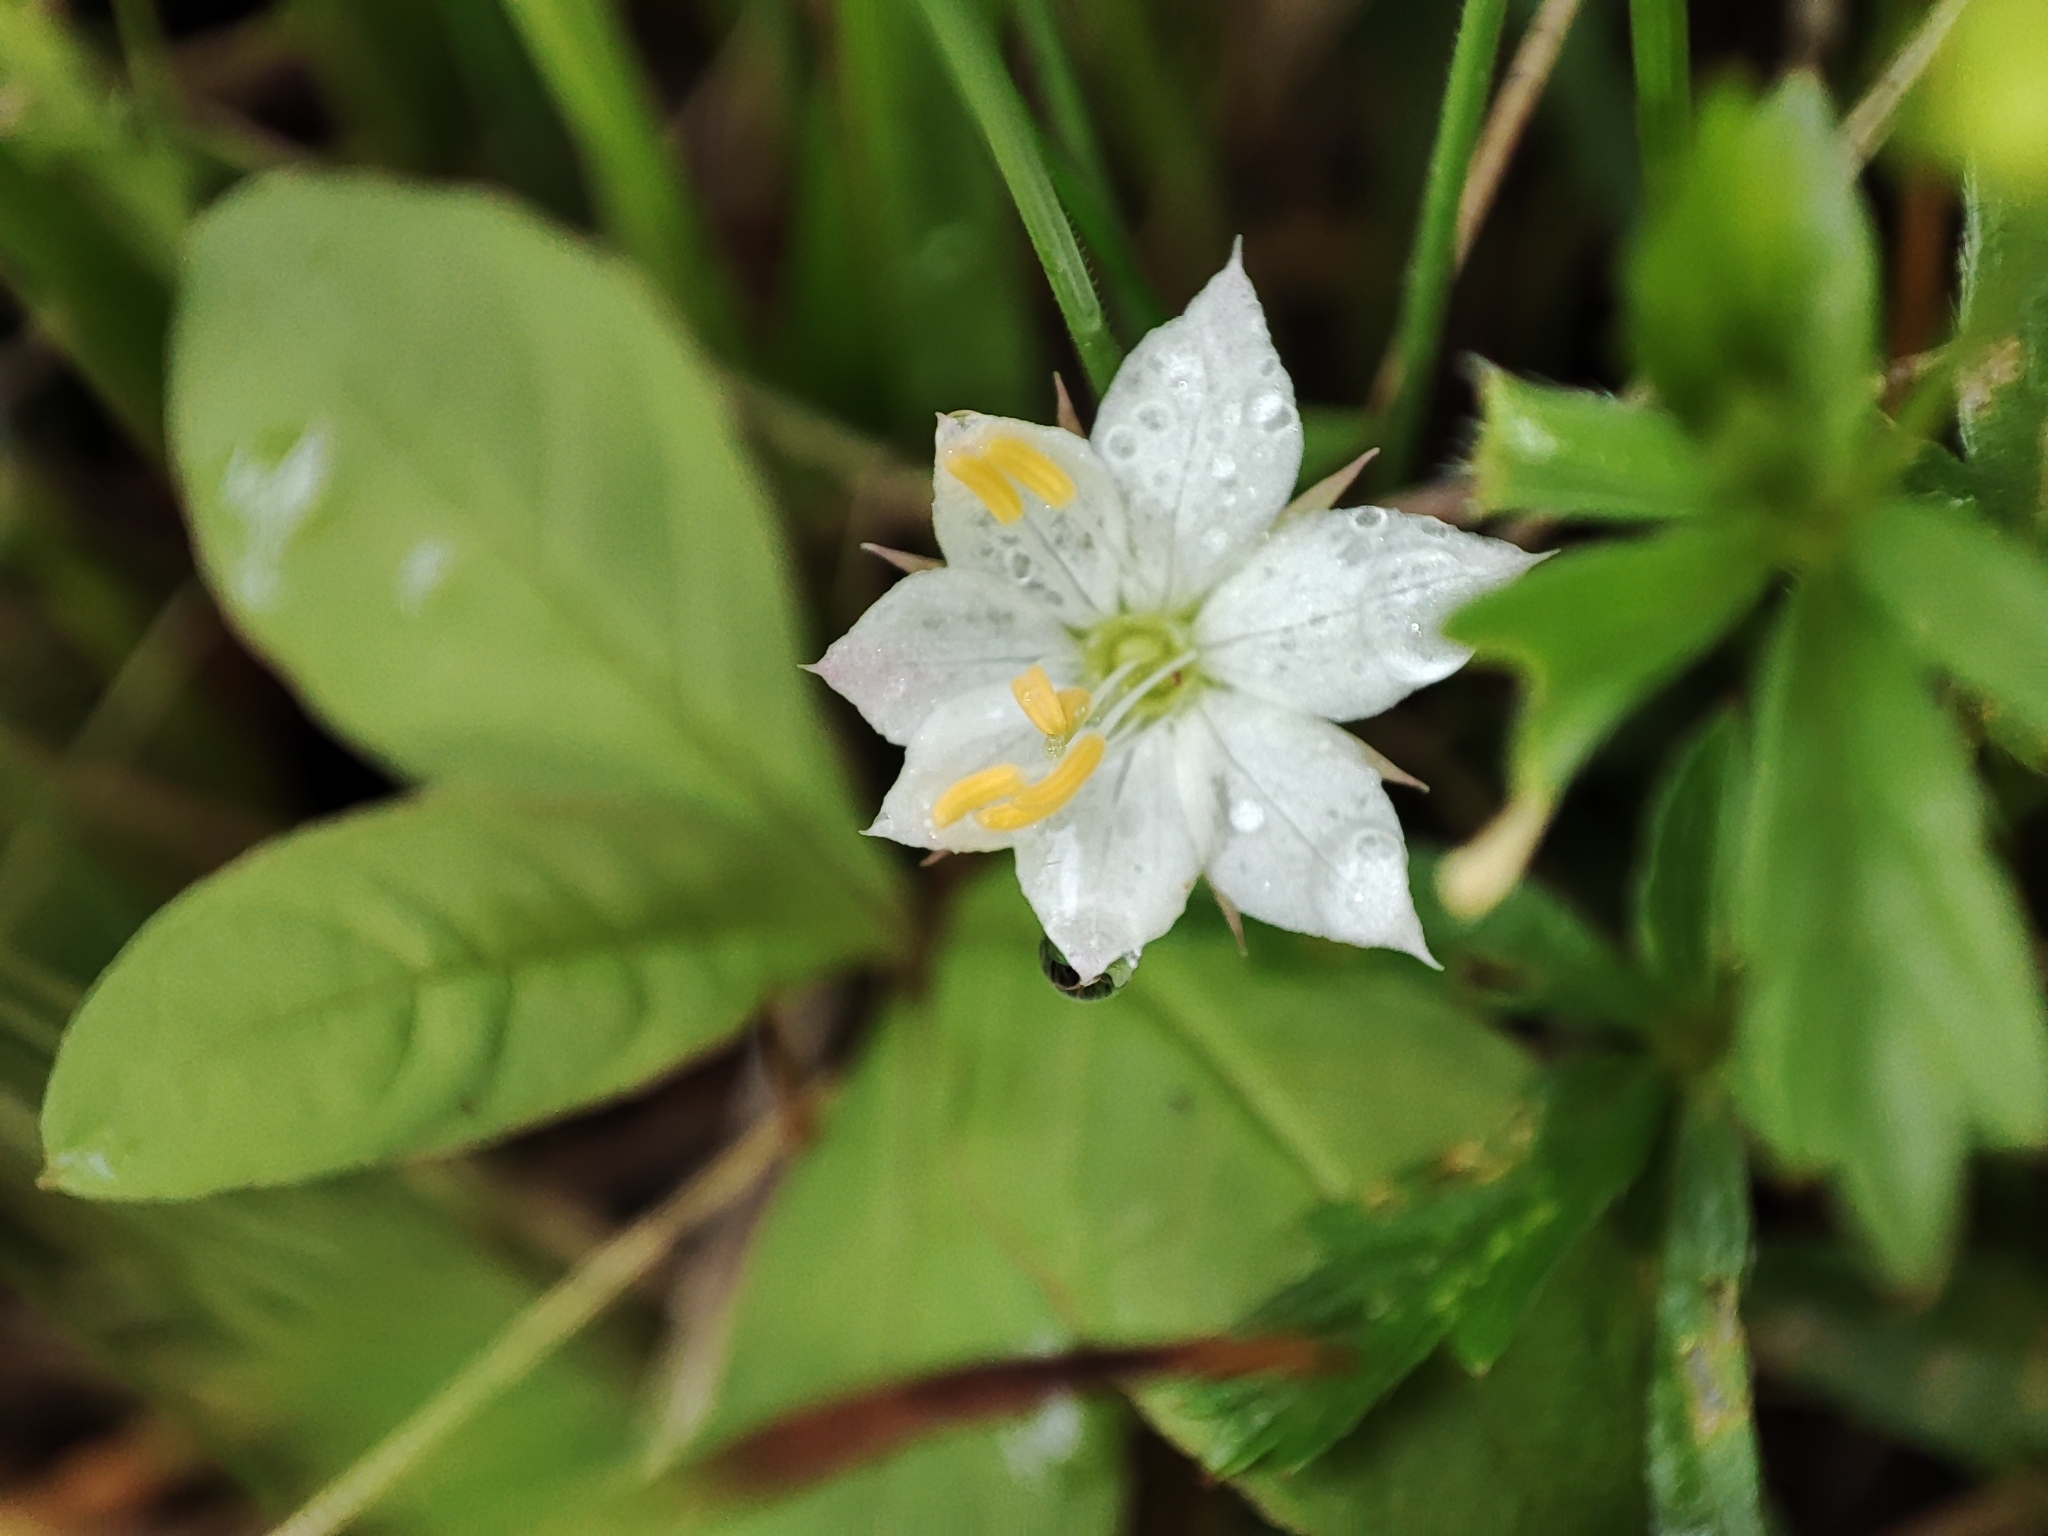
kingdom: Plantae
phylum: Tracheophyta
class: Magnoliopsida
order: Ericales
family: Primulaceae
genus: Lysimachia
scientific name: Lysimachia europaea
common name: Arctic starflower
